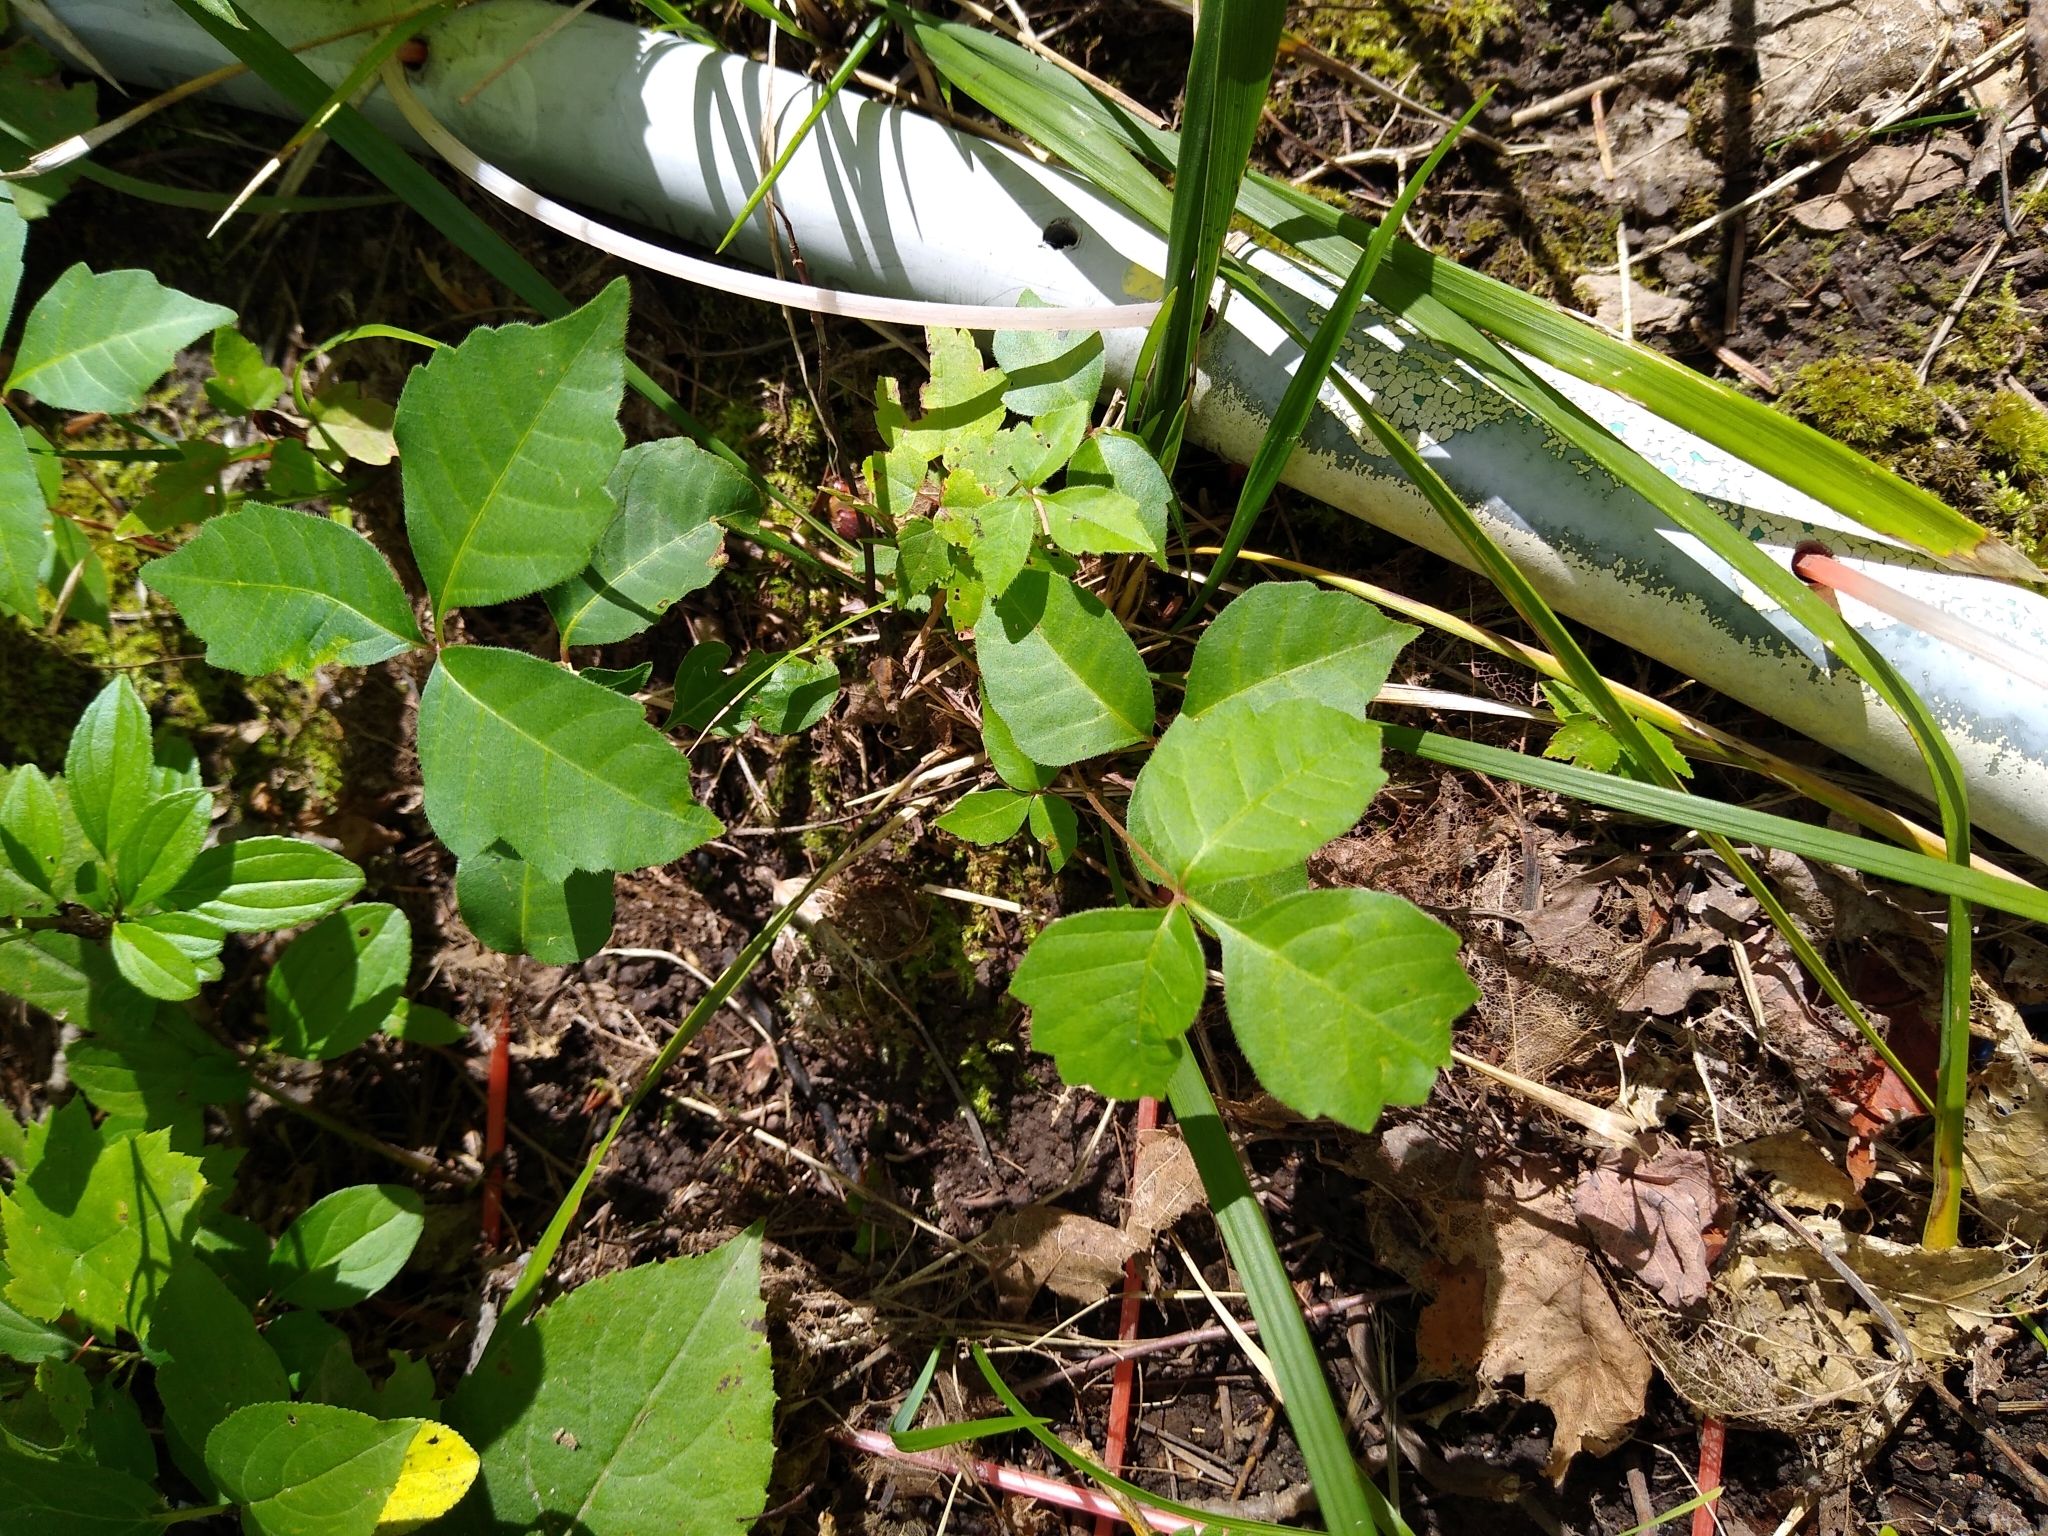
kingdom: Plantae
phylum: Tracheophyta
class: Magnoliopsida
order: Sapindales
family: Anacardiaceae
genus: Toxicodendron
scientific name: Toxicodendron rydbergii
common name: Rydberg's poison-ivy
